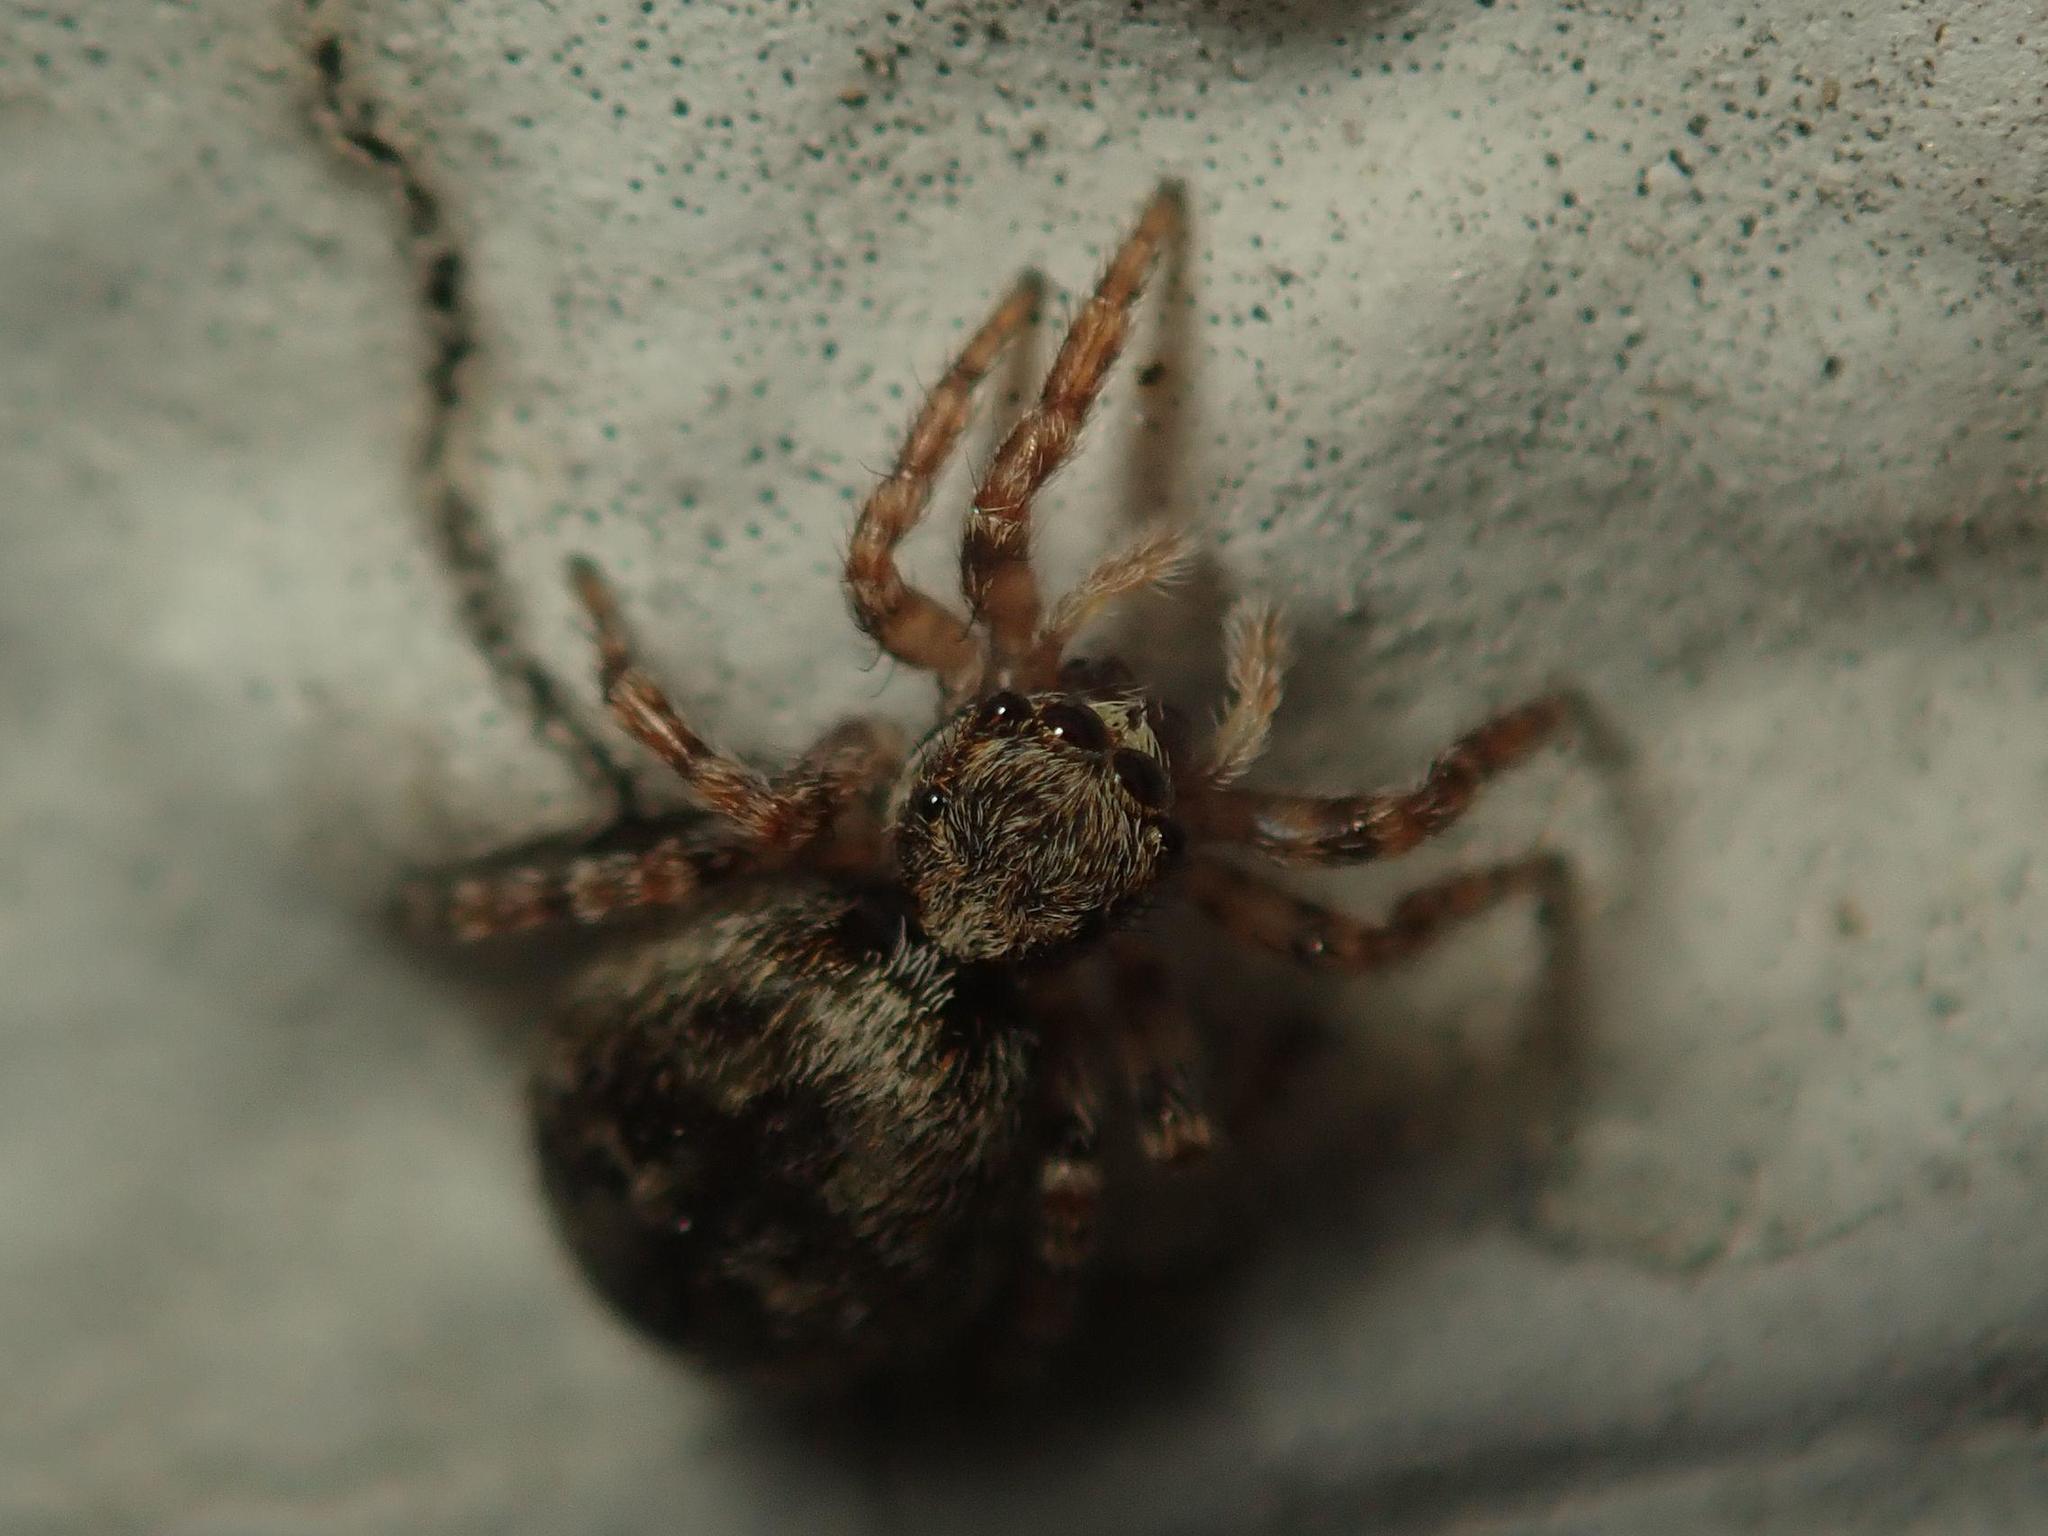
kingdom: Animalia
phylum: Arthropoda
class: Arachnida
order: Araneae
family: Salticidae
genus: Pseudeuophrys
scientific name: Pseudeuophrys lanigera
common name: Jumping spider
